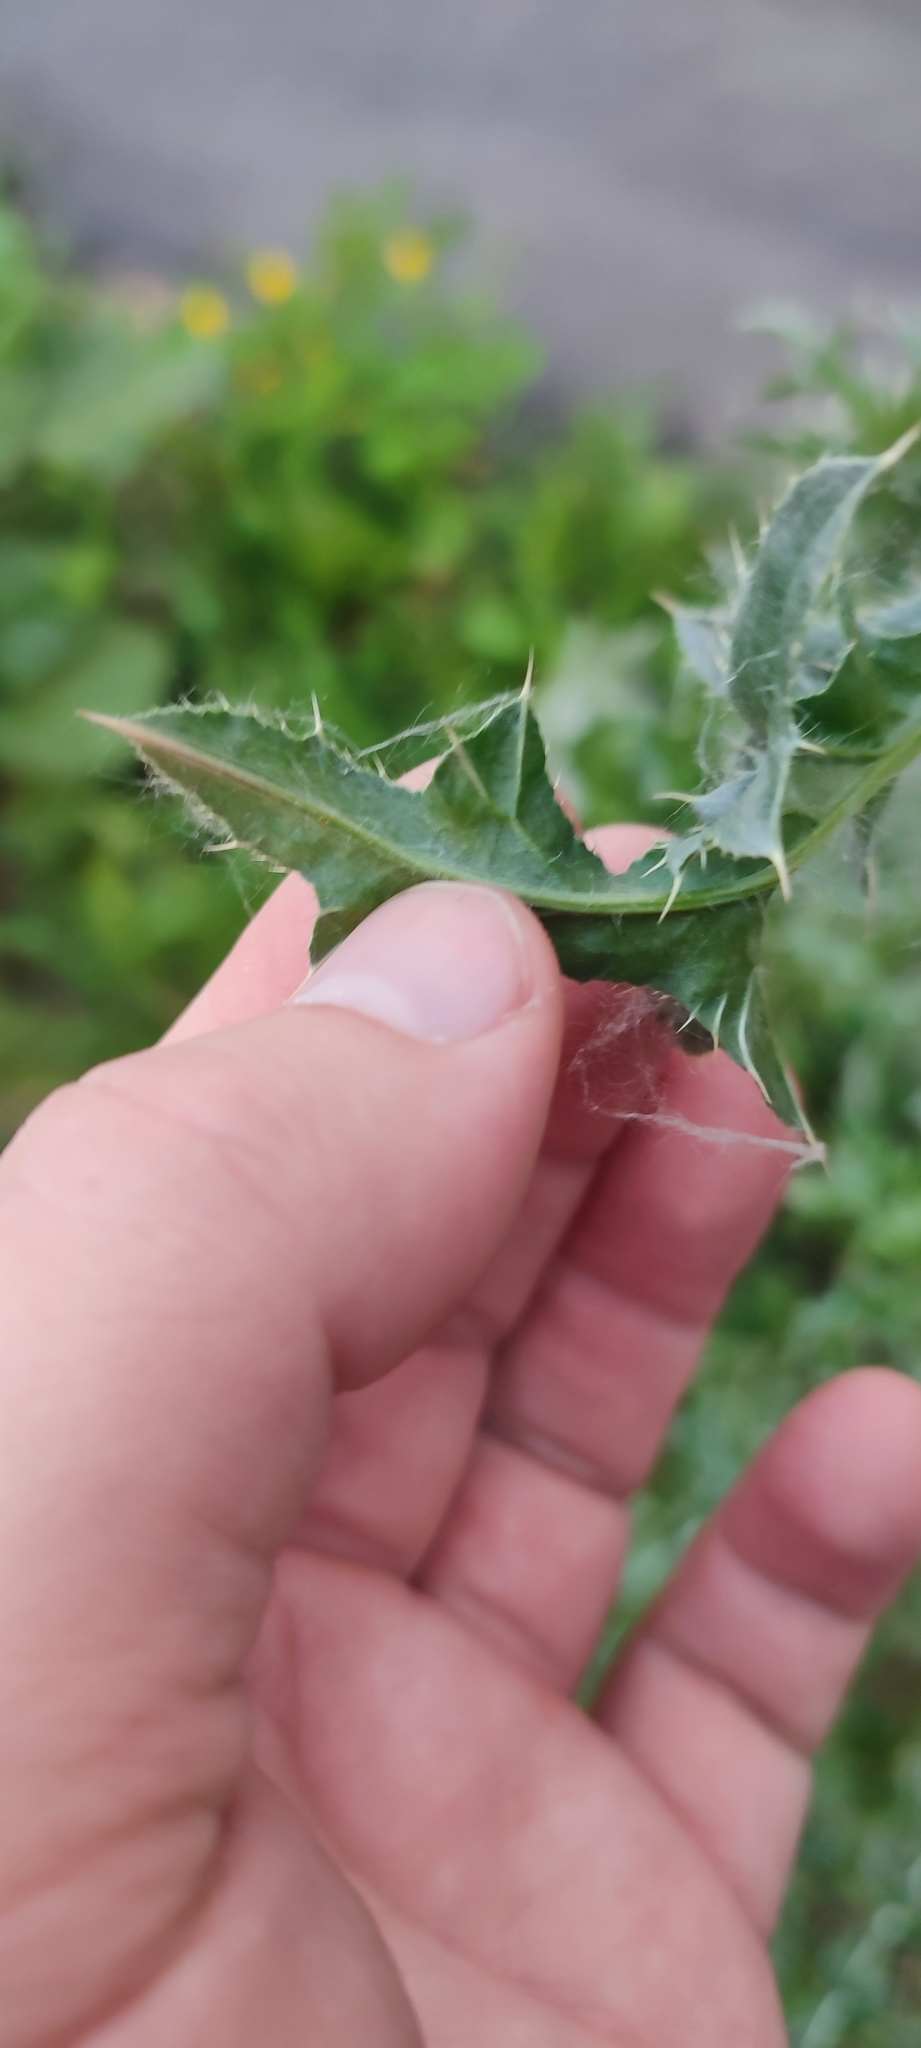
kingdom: Plantae
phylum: Tracheophyta
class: Magnoliopsida
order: Asterales
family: Asteraceae
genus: Carduus
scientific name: Carduus nutans
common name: Musk thistle
